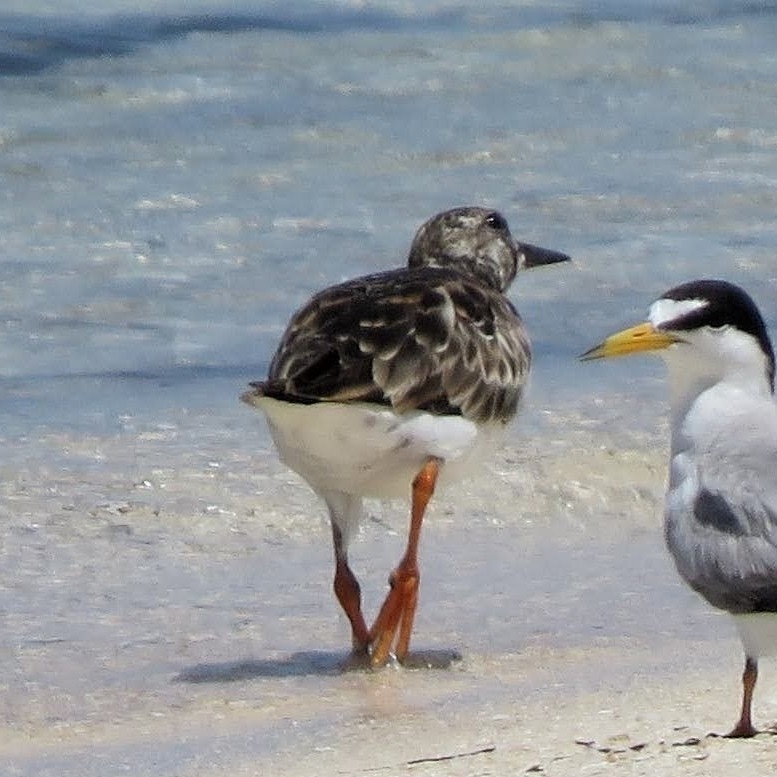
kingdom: Animalia
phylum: Chordata
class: Aves
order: Charadriiformes
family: Scolopacidae
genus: Arenaria
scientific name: Arenaria interpres
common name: Ruddy turnstone
